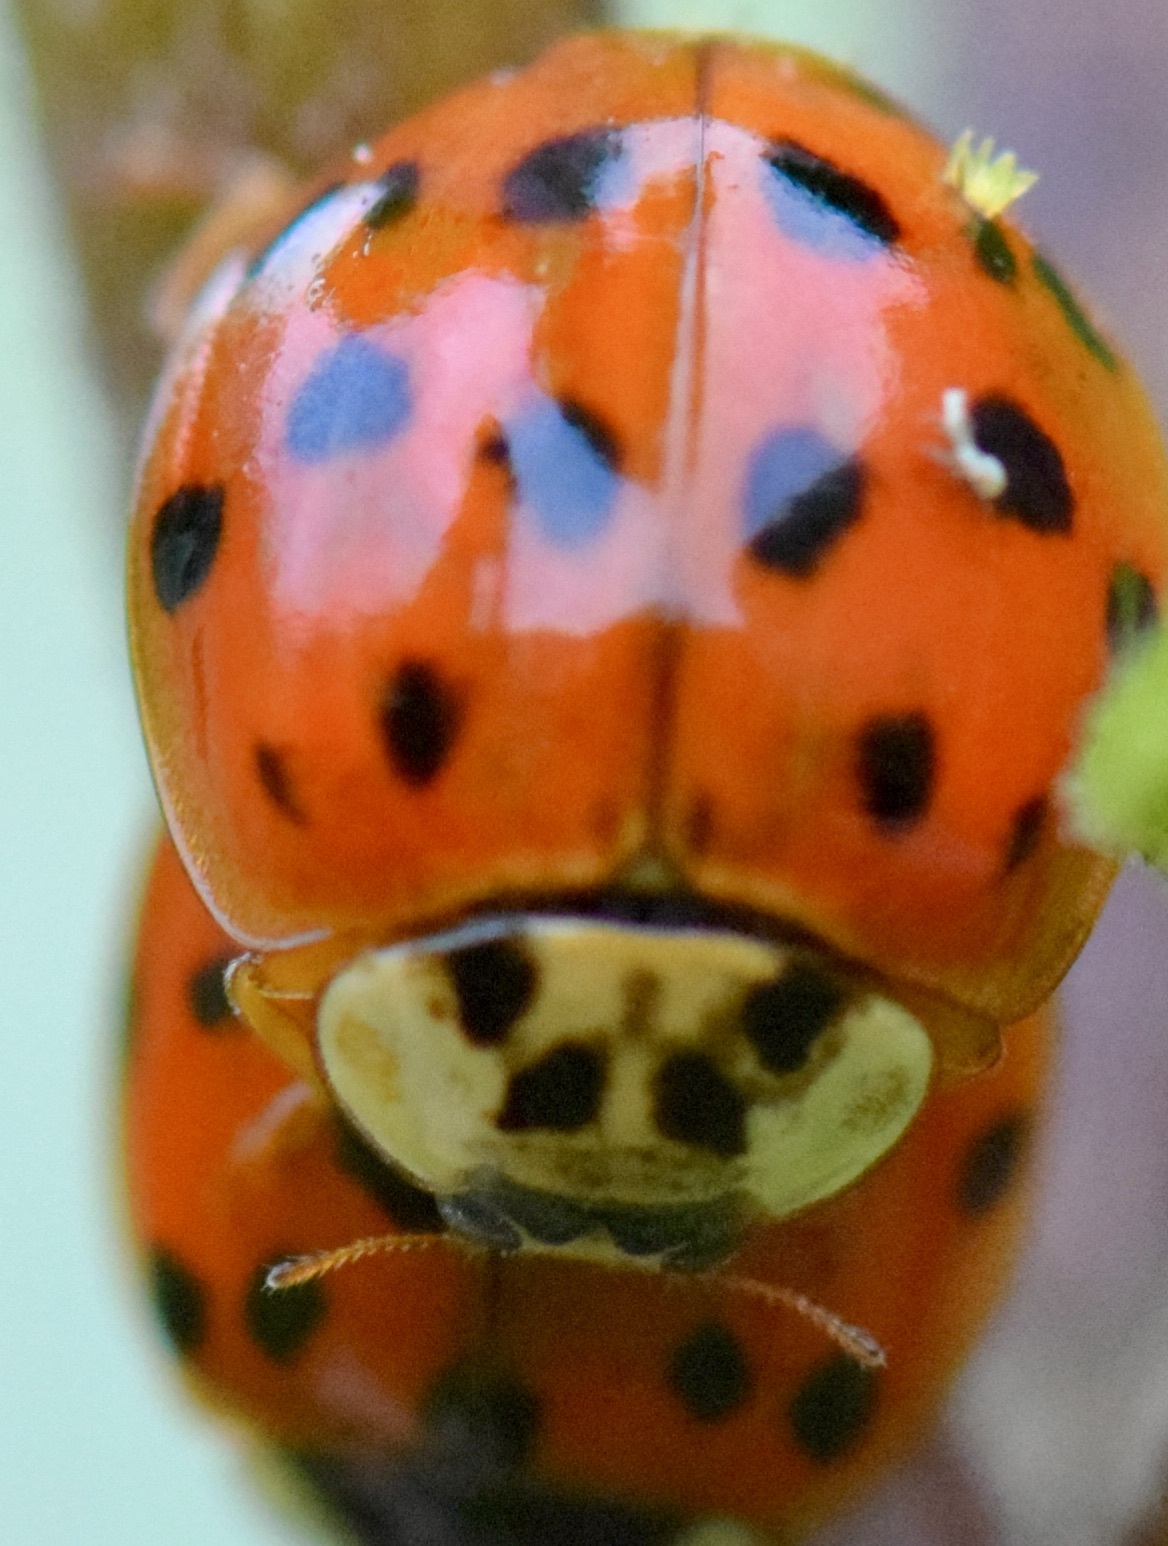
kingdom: Fungi
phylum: Ascomycota
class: Laboulbeniomycetes
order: Laboulbeniales
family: Laboulbeniaceae
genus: Hesperomyces
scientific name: Hesperomyces harmoniae
